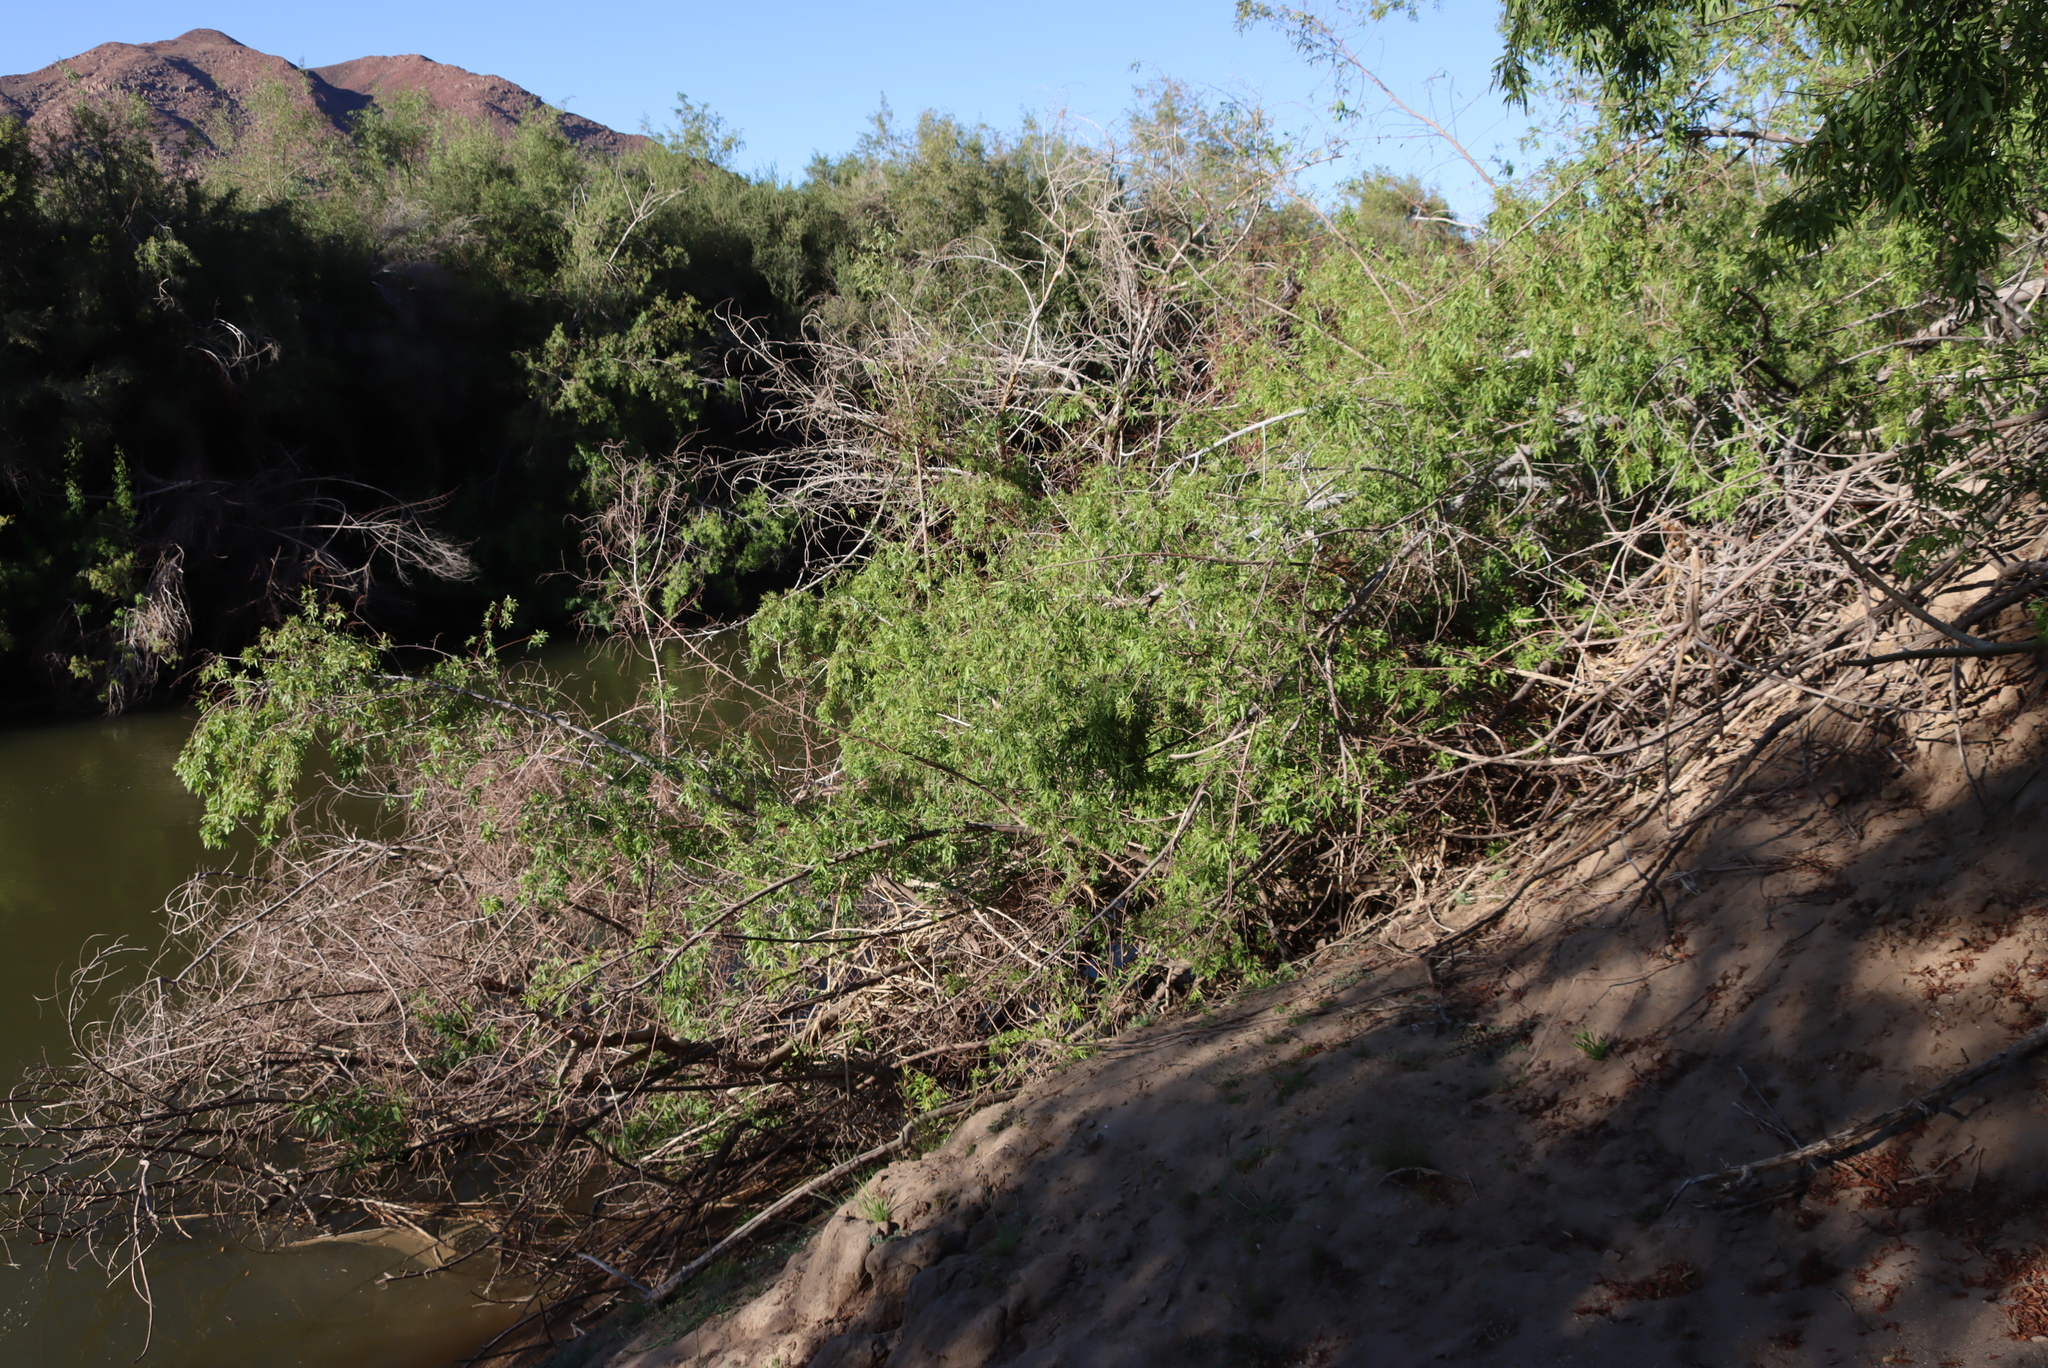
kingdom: Plantae
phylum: Tracheophyta
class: Magnoliopsida
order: Sapindales
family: Anacardiaceae
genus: Searsia
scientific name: Searsia pendulina
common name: White karee
